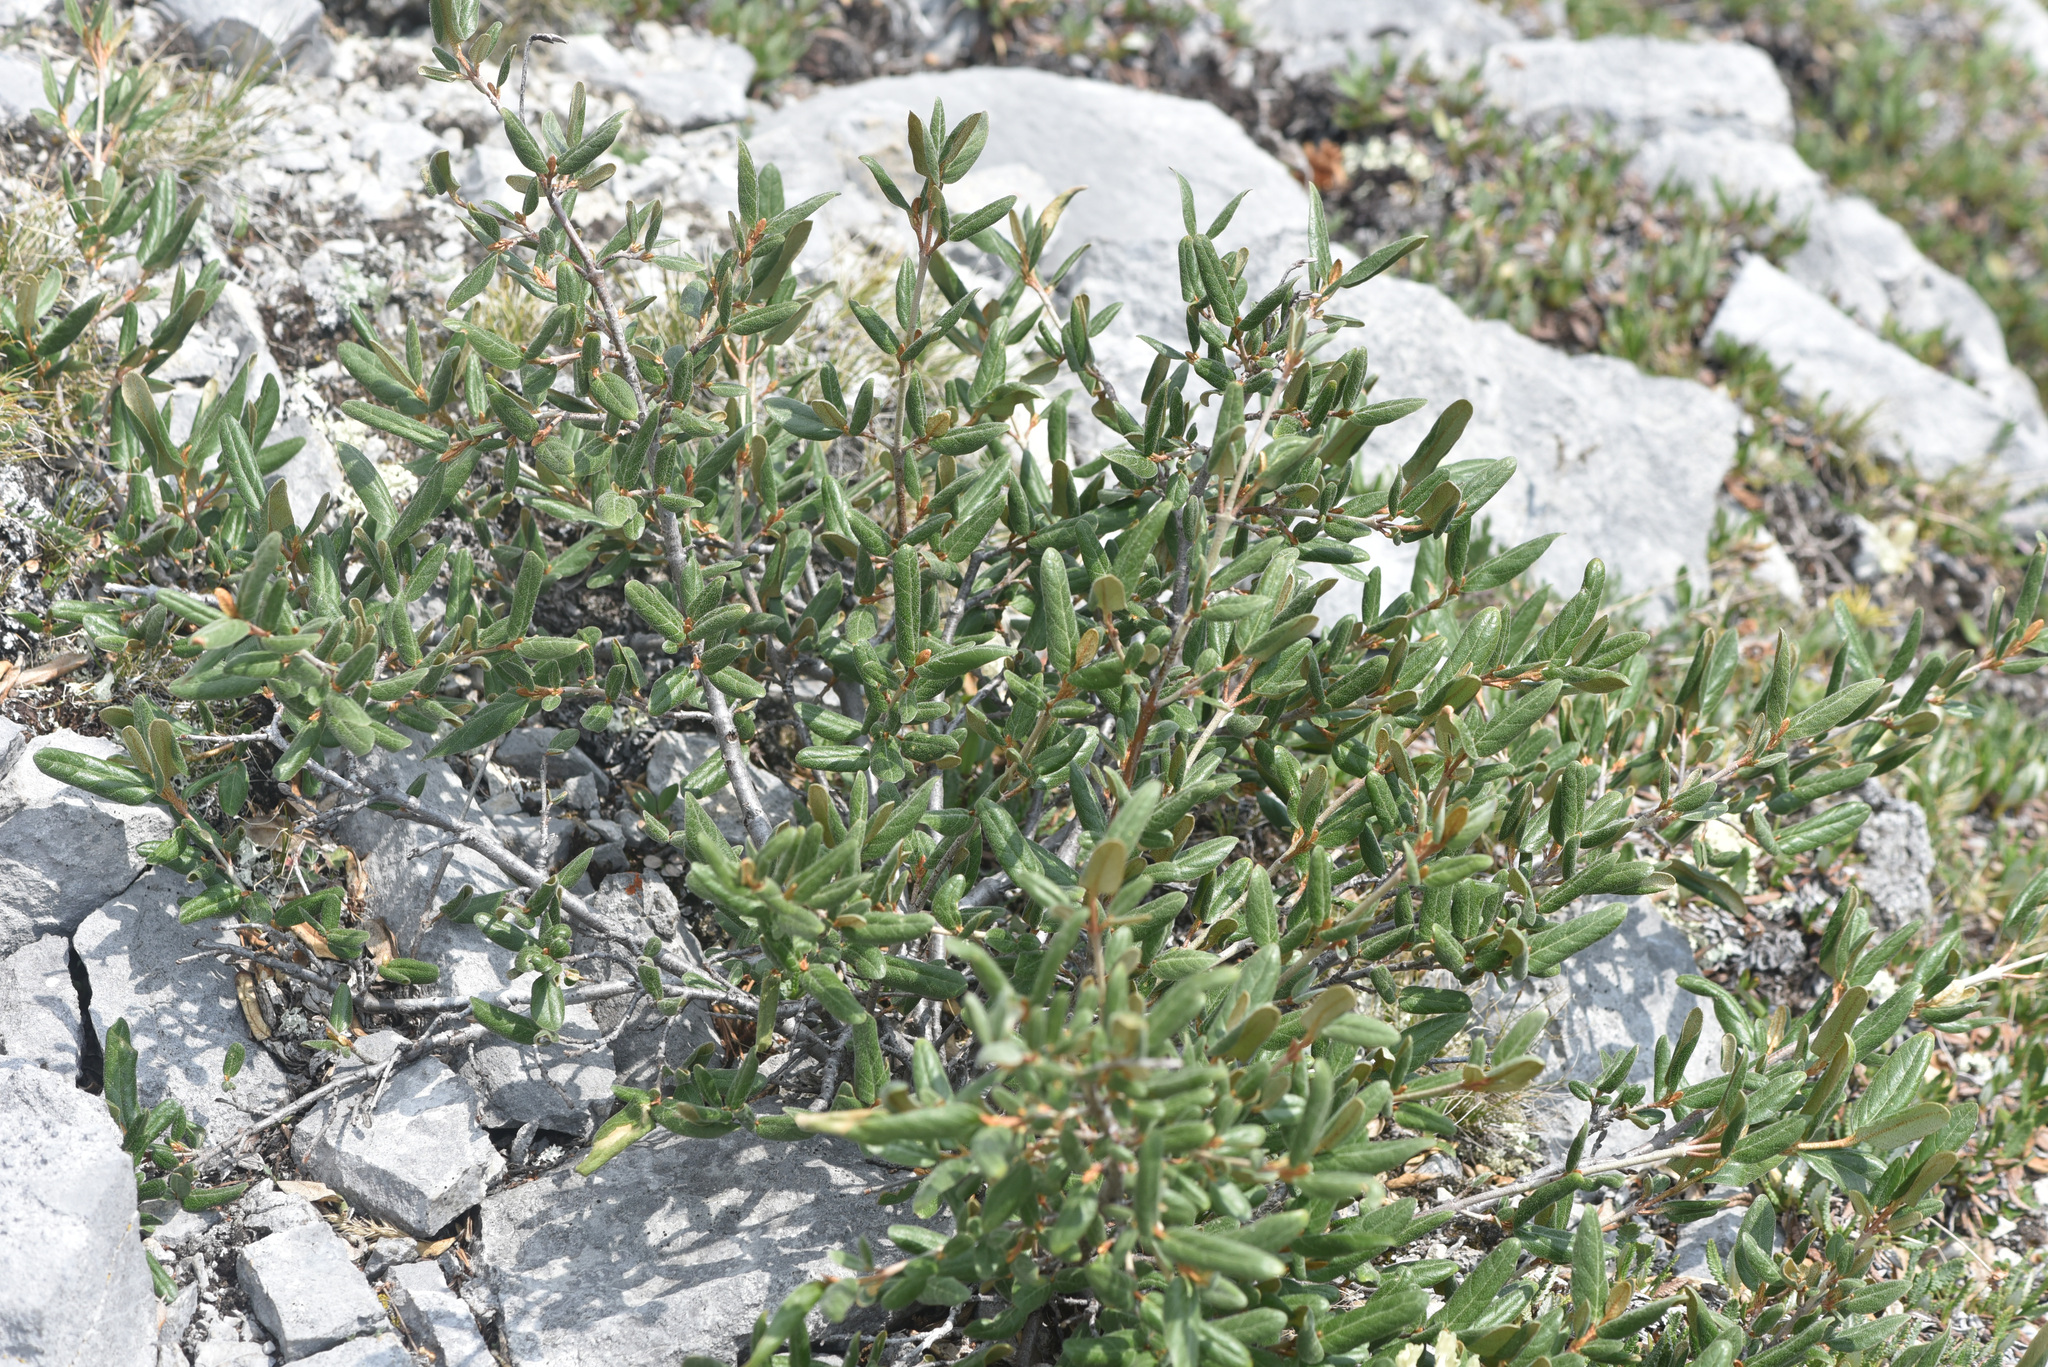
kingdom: Plantae
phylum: Tracheophyta
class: Magnoliopsida
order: Rosales
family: Elaeagnaceae
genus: Shepherdia
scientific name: Shepherdia canadensis
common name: Soapberry
